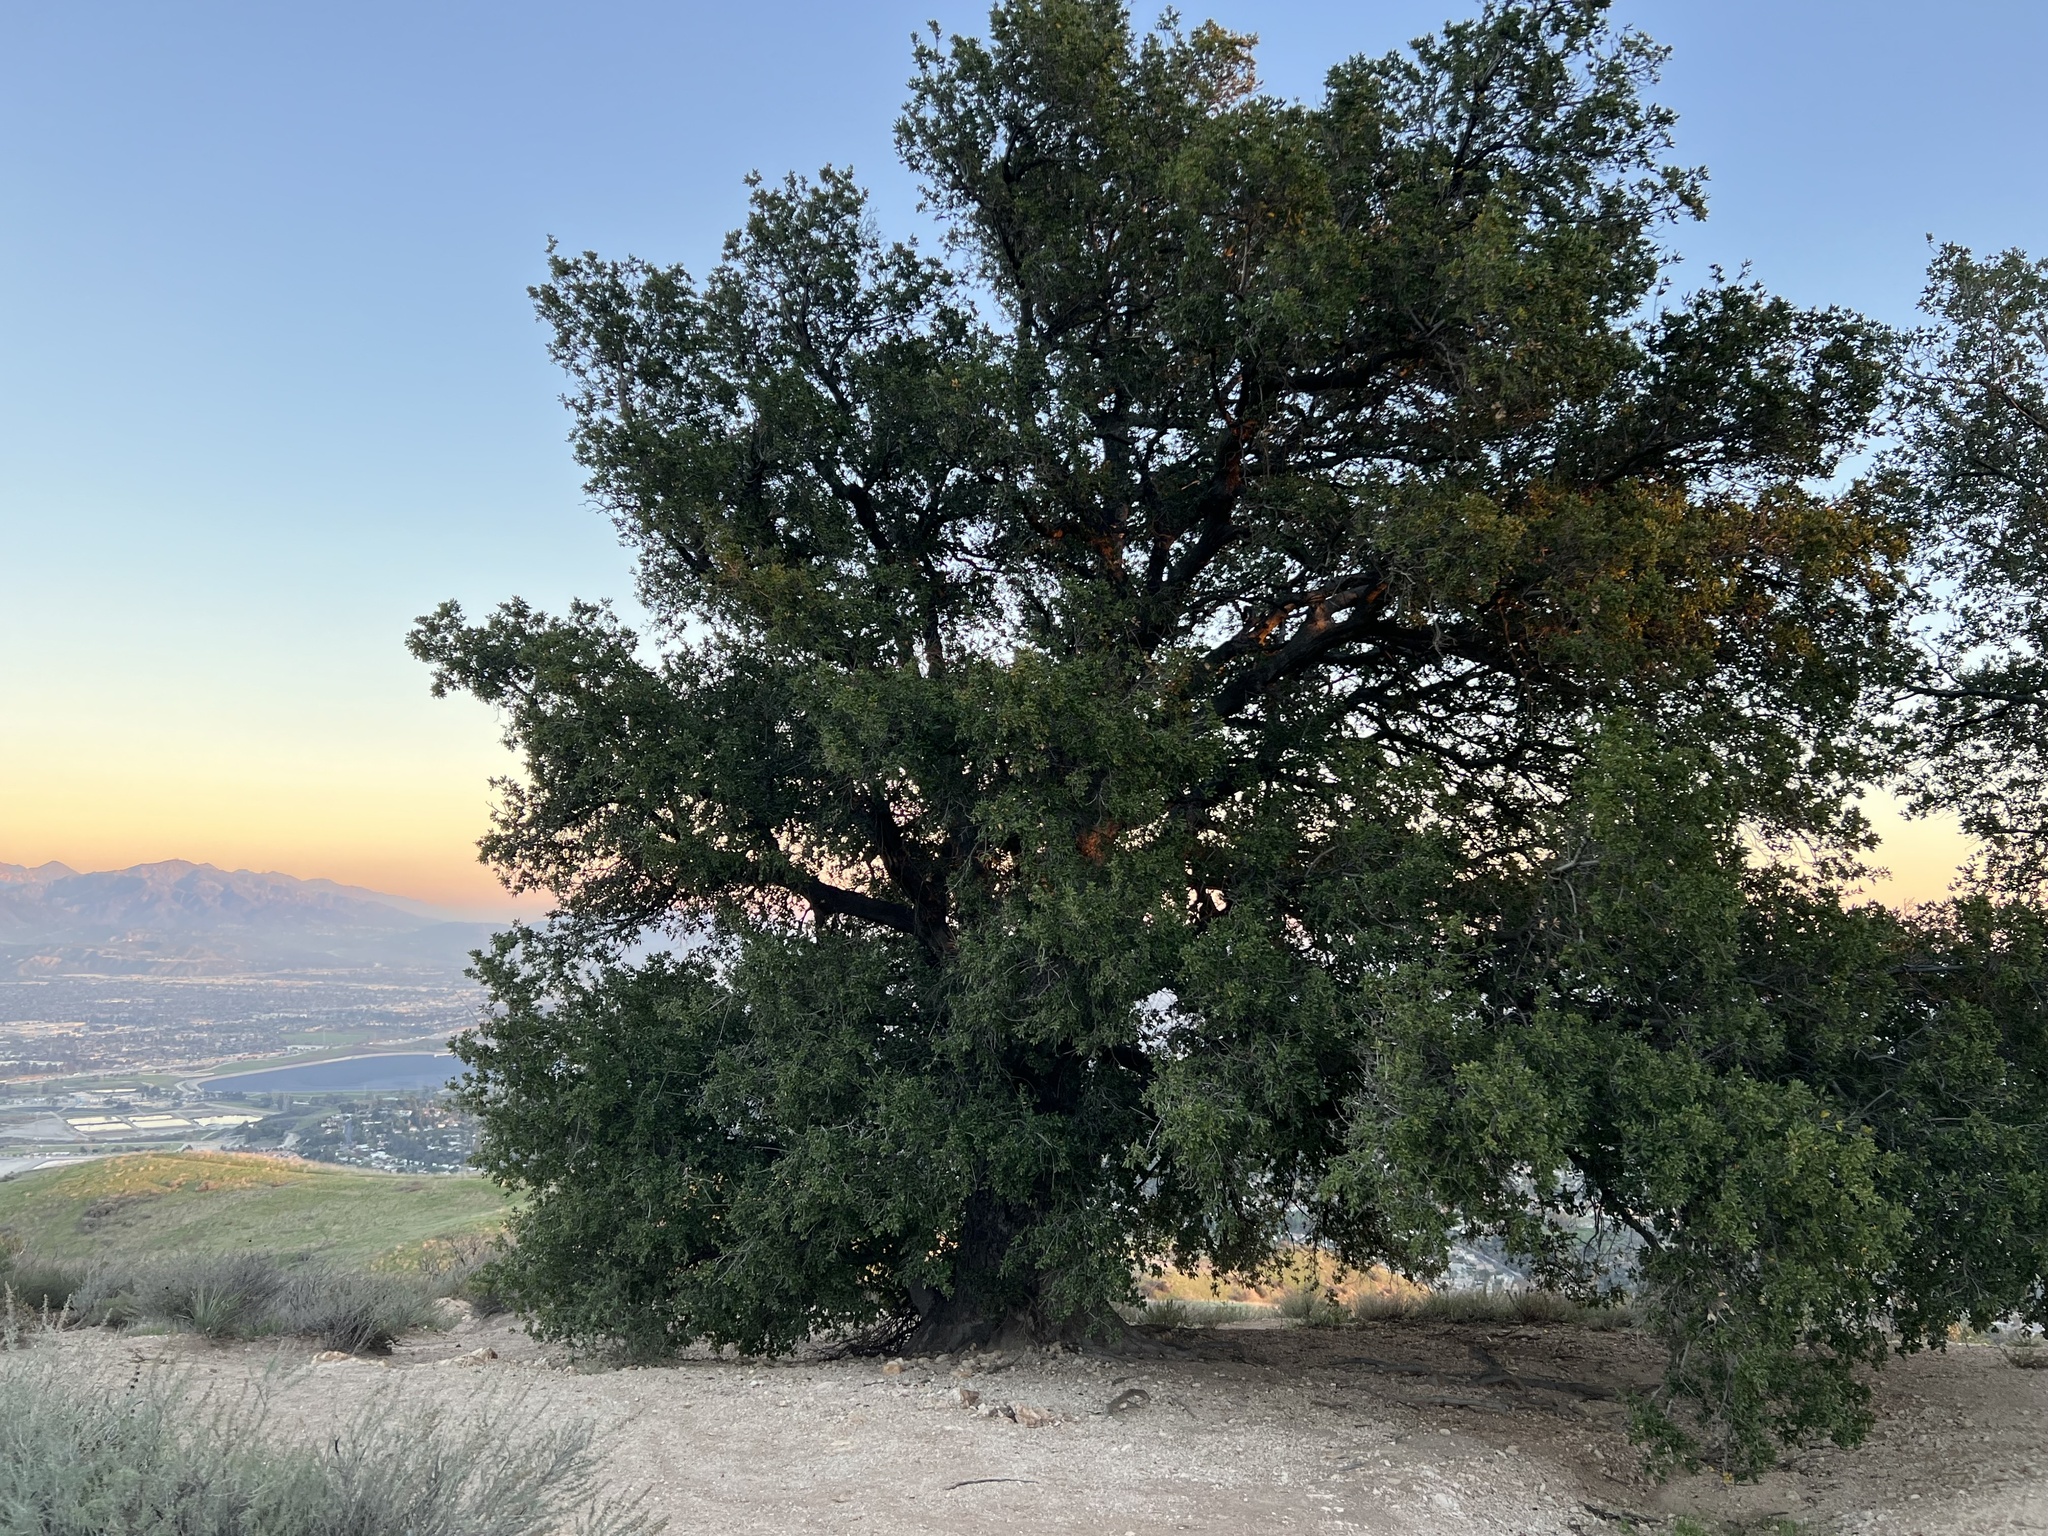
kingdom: Plantae
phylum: Tracheophyta
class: Magnoliopsida
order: Fagales
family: Fagaceae
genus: Quercus
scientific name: Quercus agrifolia
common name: California live oak
